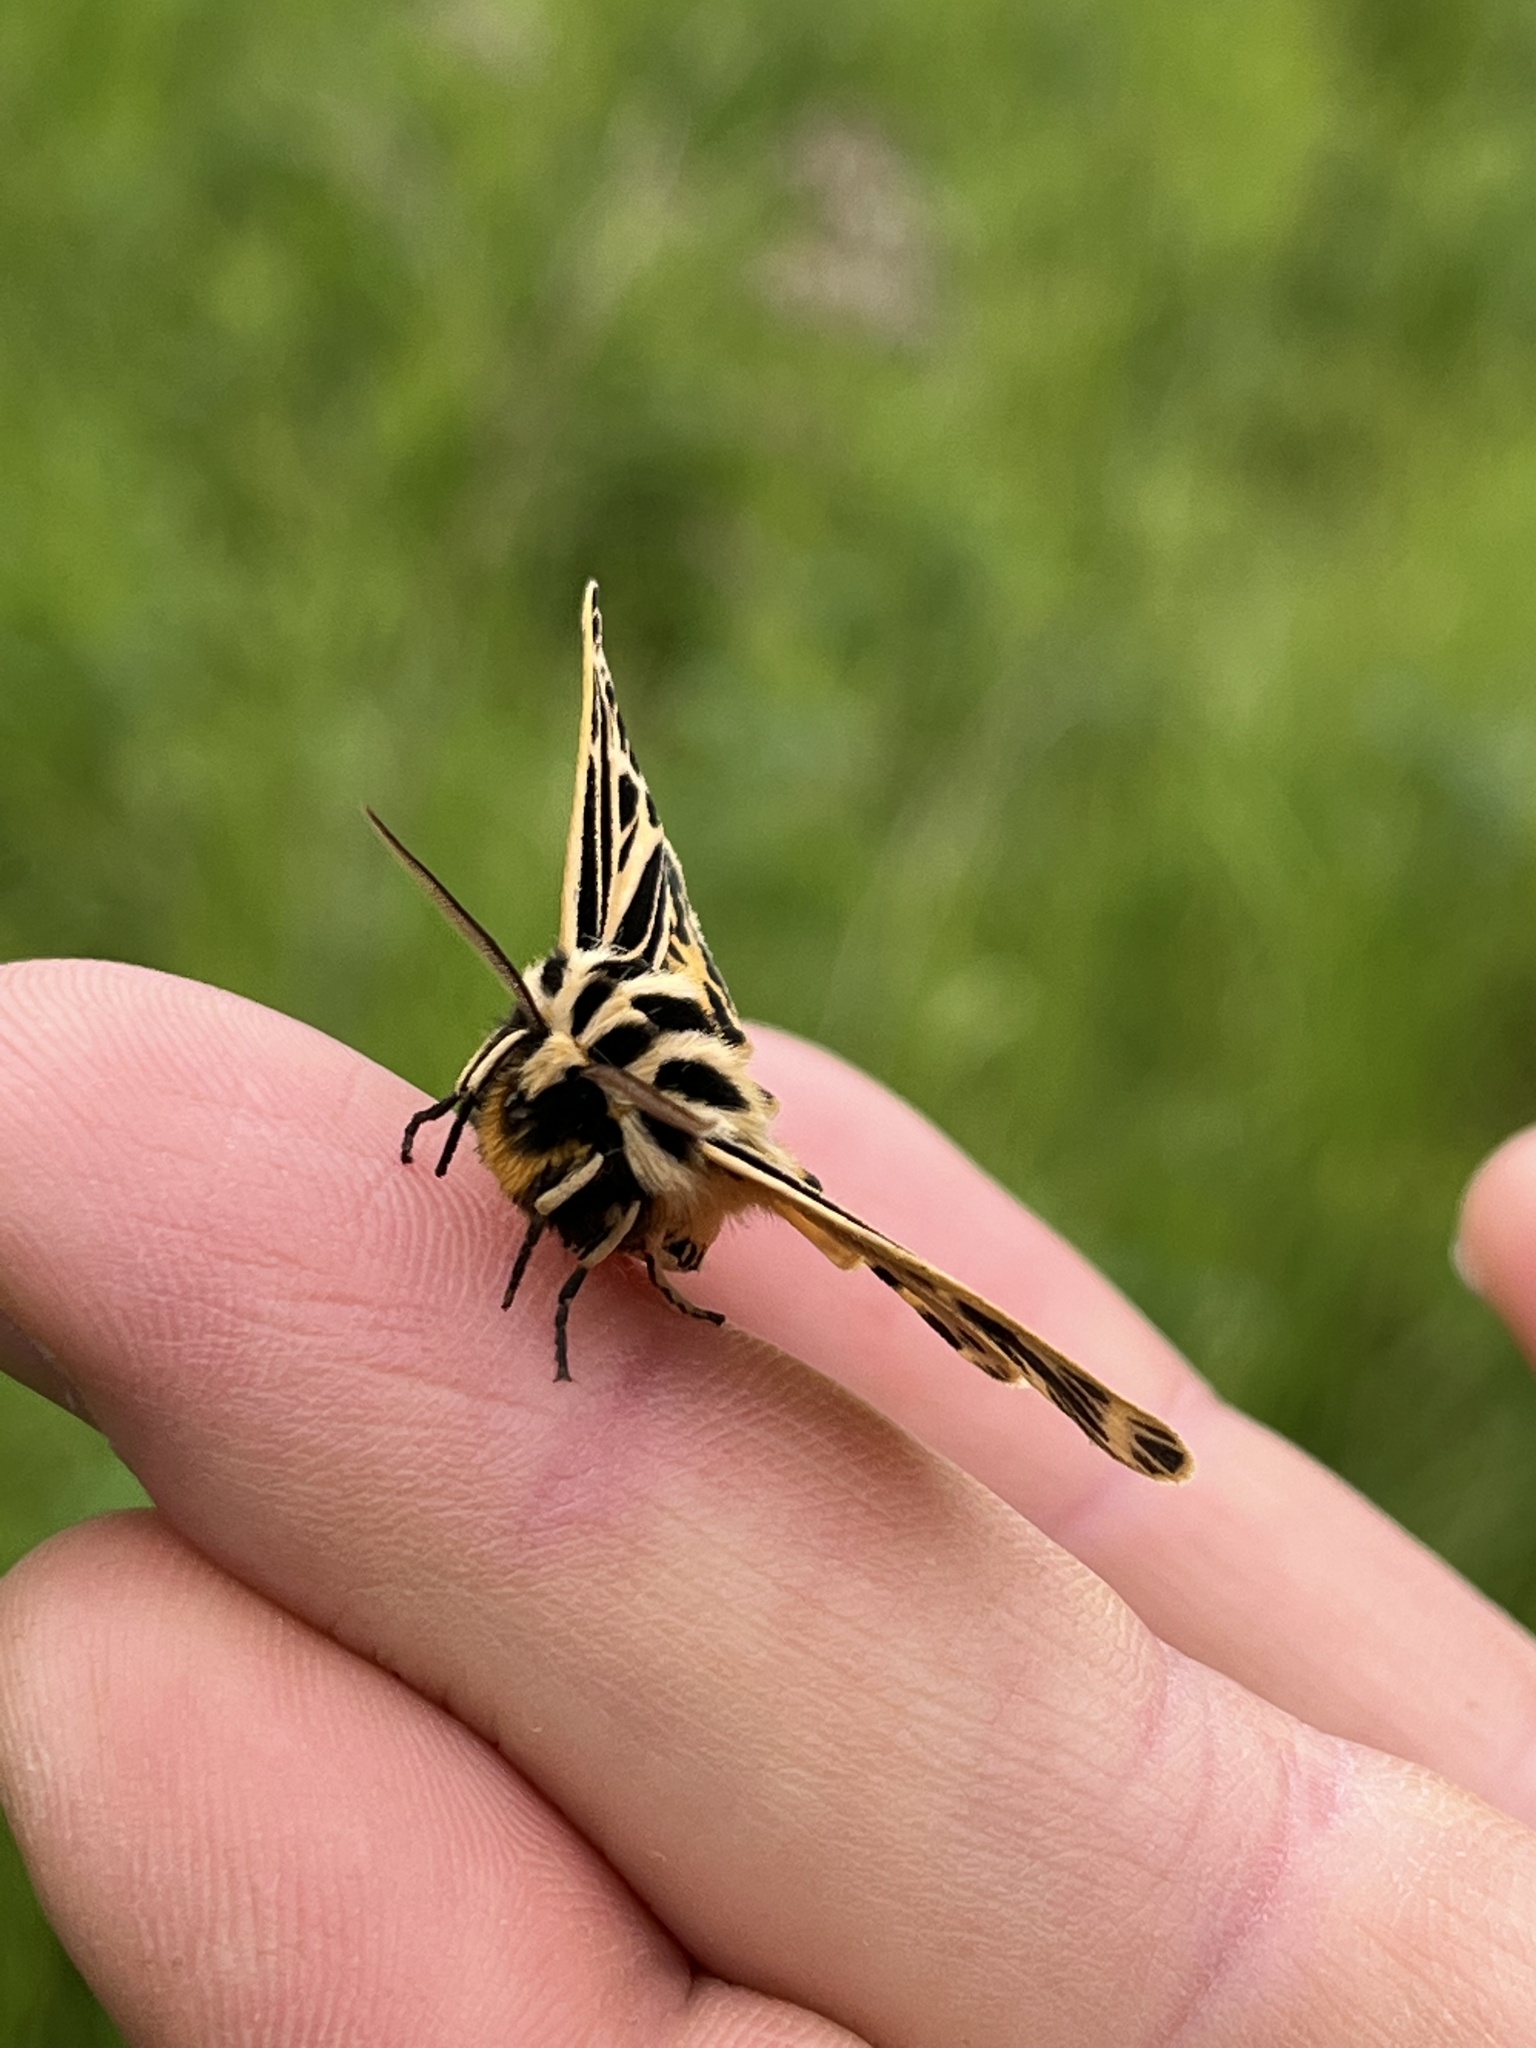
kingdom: Animalia
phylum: Arthropoda
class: Insecta
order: Lepidoptera
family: Erebidae
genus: Grammia
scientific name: Grammia virguncula
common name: Little tiger moth
